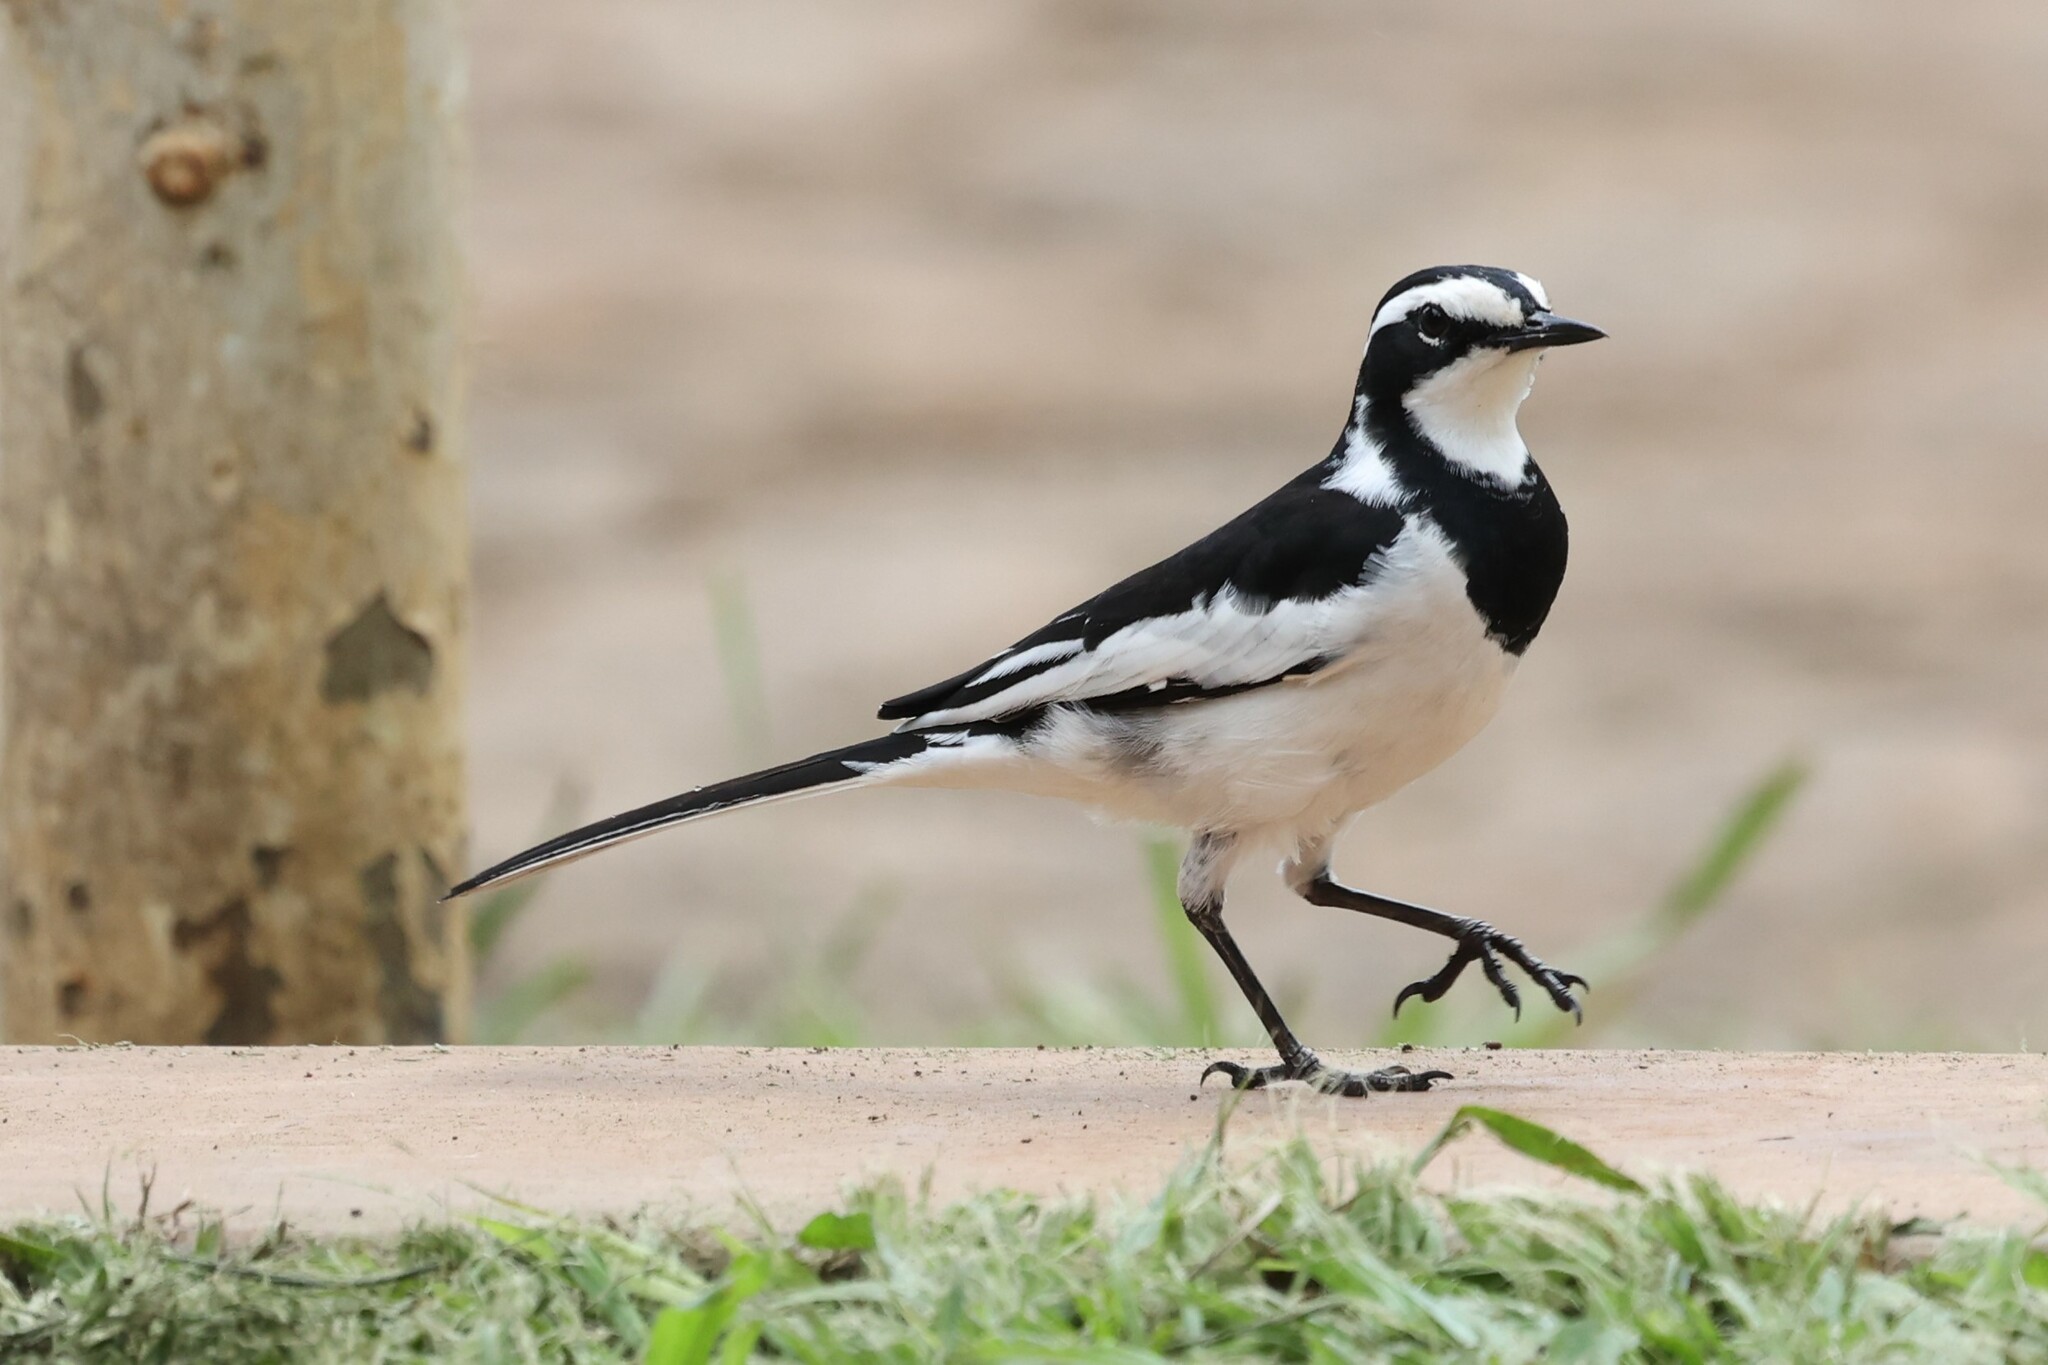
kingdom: Animalia
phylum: Chordata
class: Aves
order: Passeriformes
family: Motacillidae
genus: Motacilla
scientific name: Motacilla aguimp
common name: African pied wagtail
